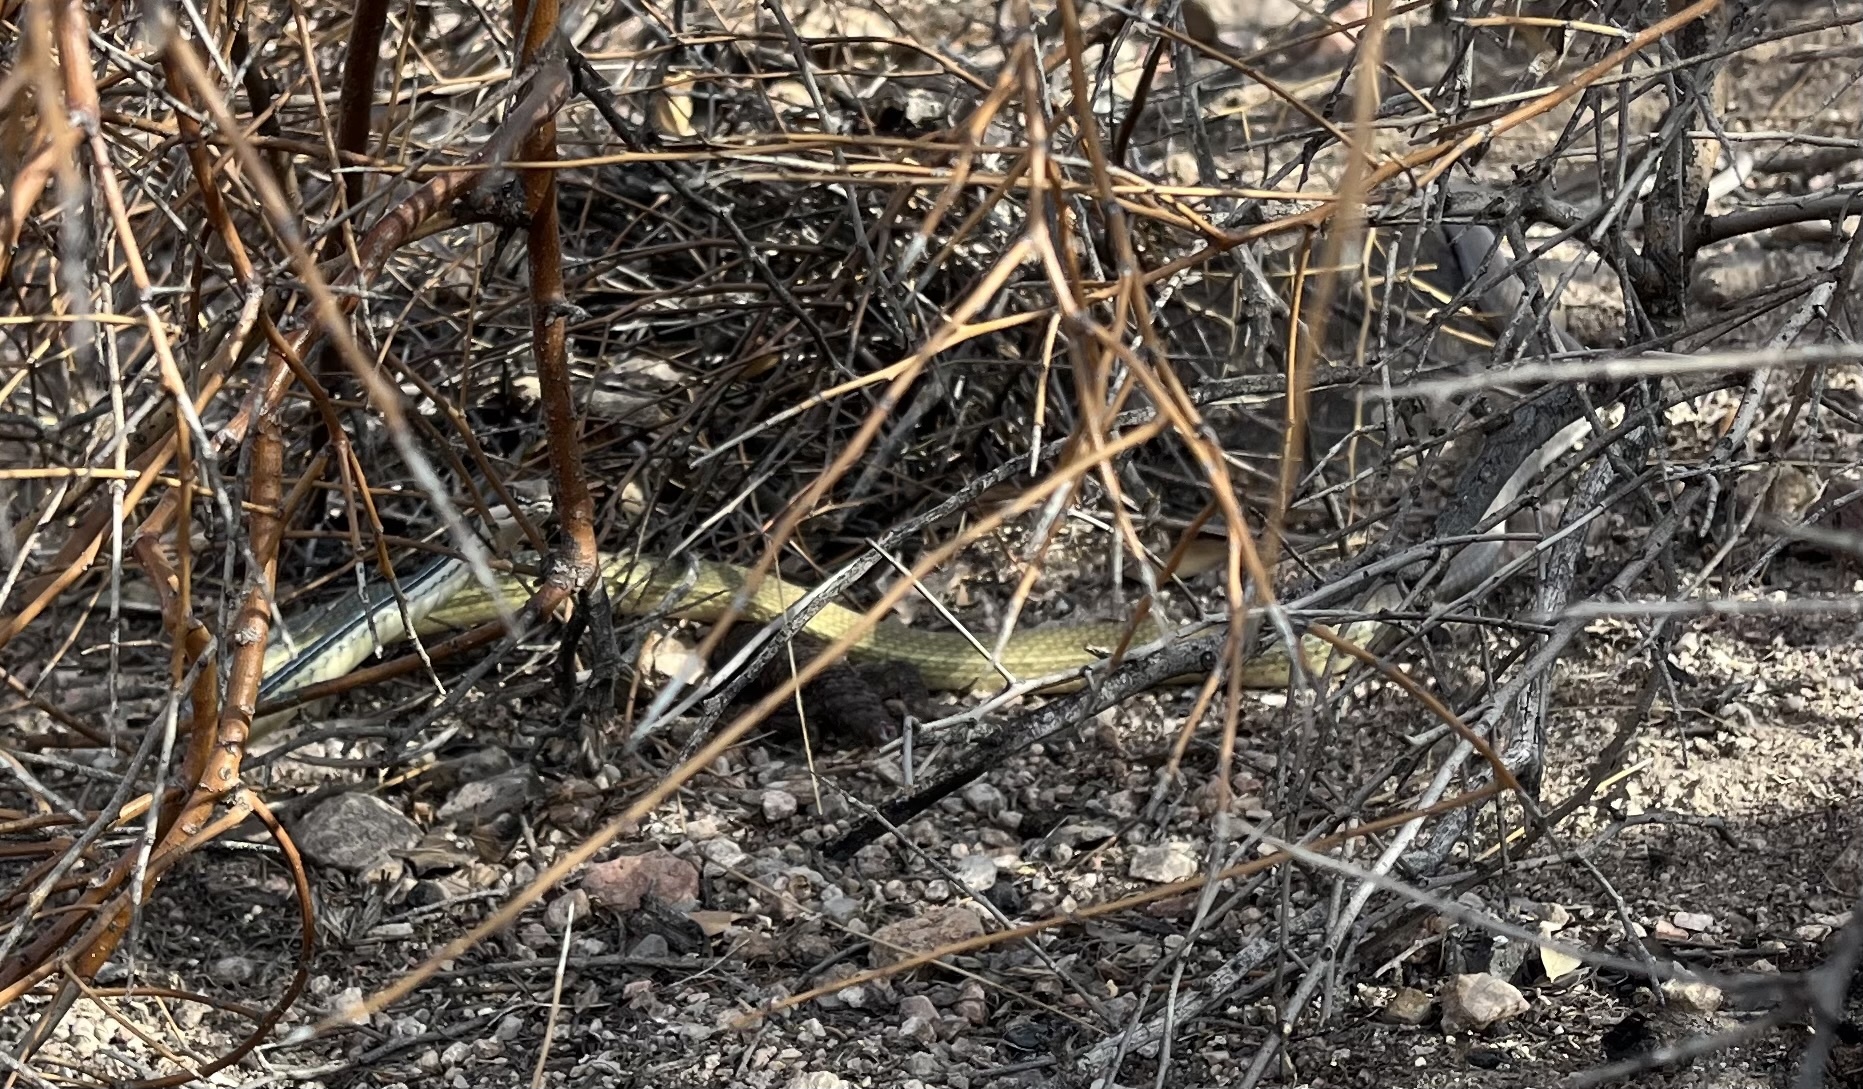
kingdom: Animalia
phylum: Chordata
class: Squamata
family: Colubridae
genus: Masticophis
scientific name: Masticophis bilineatus
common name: Sonoran whipsnake
